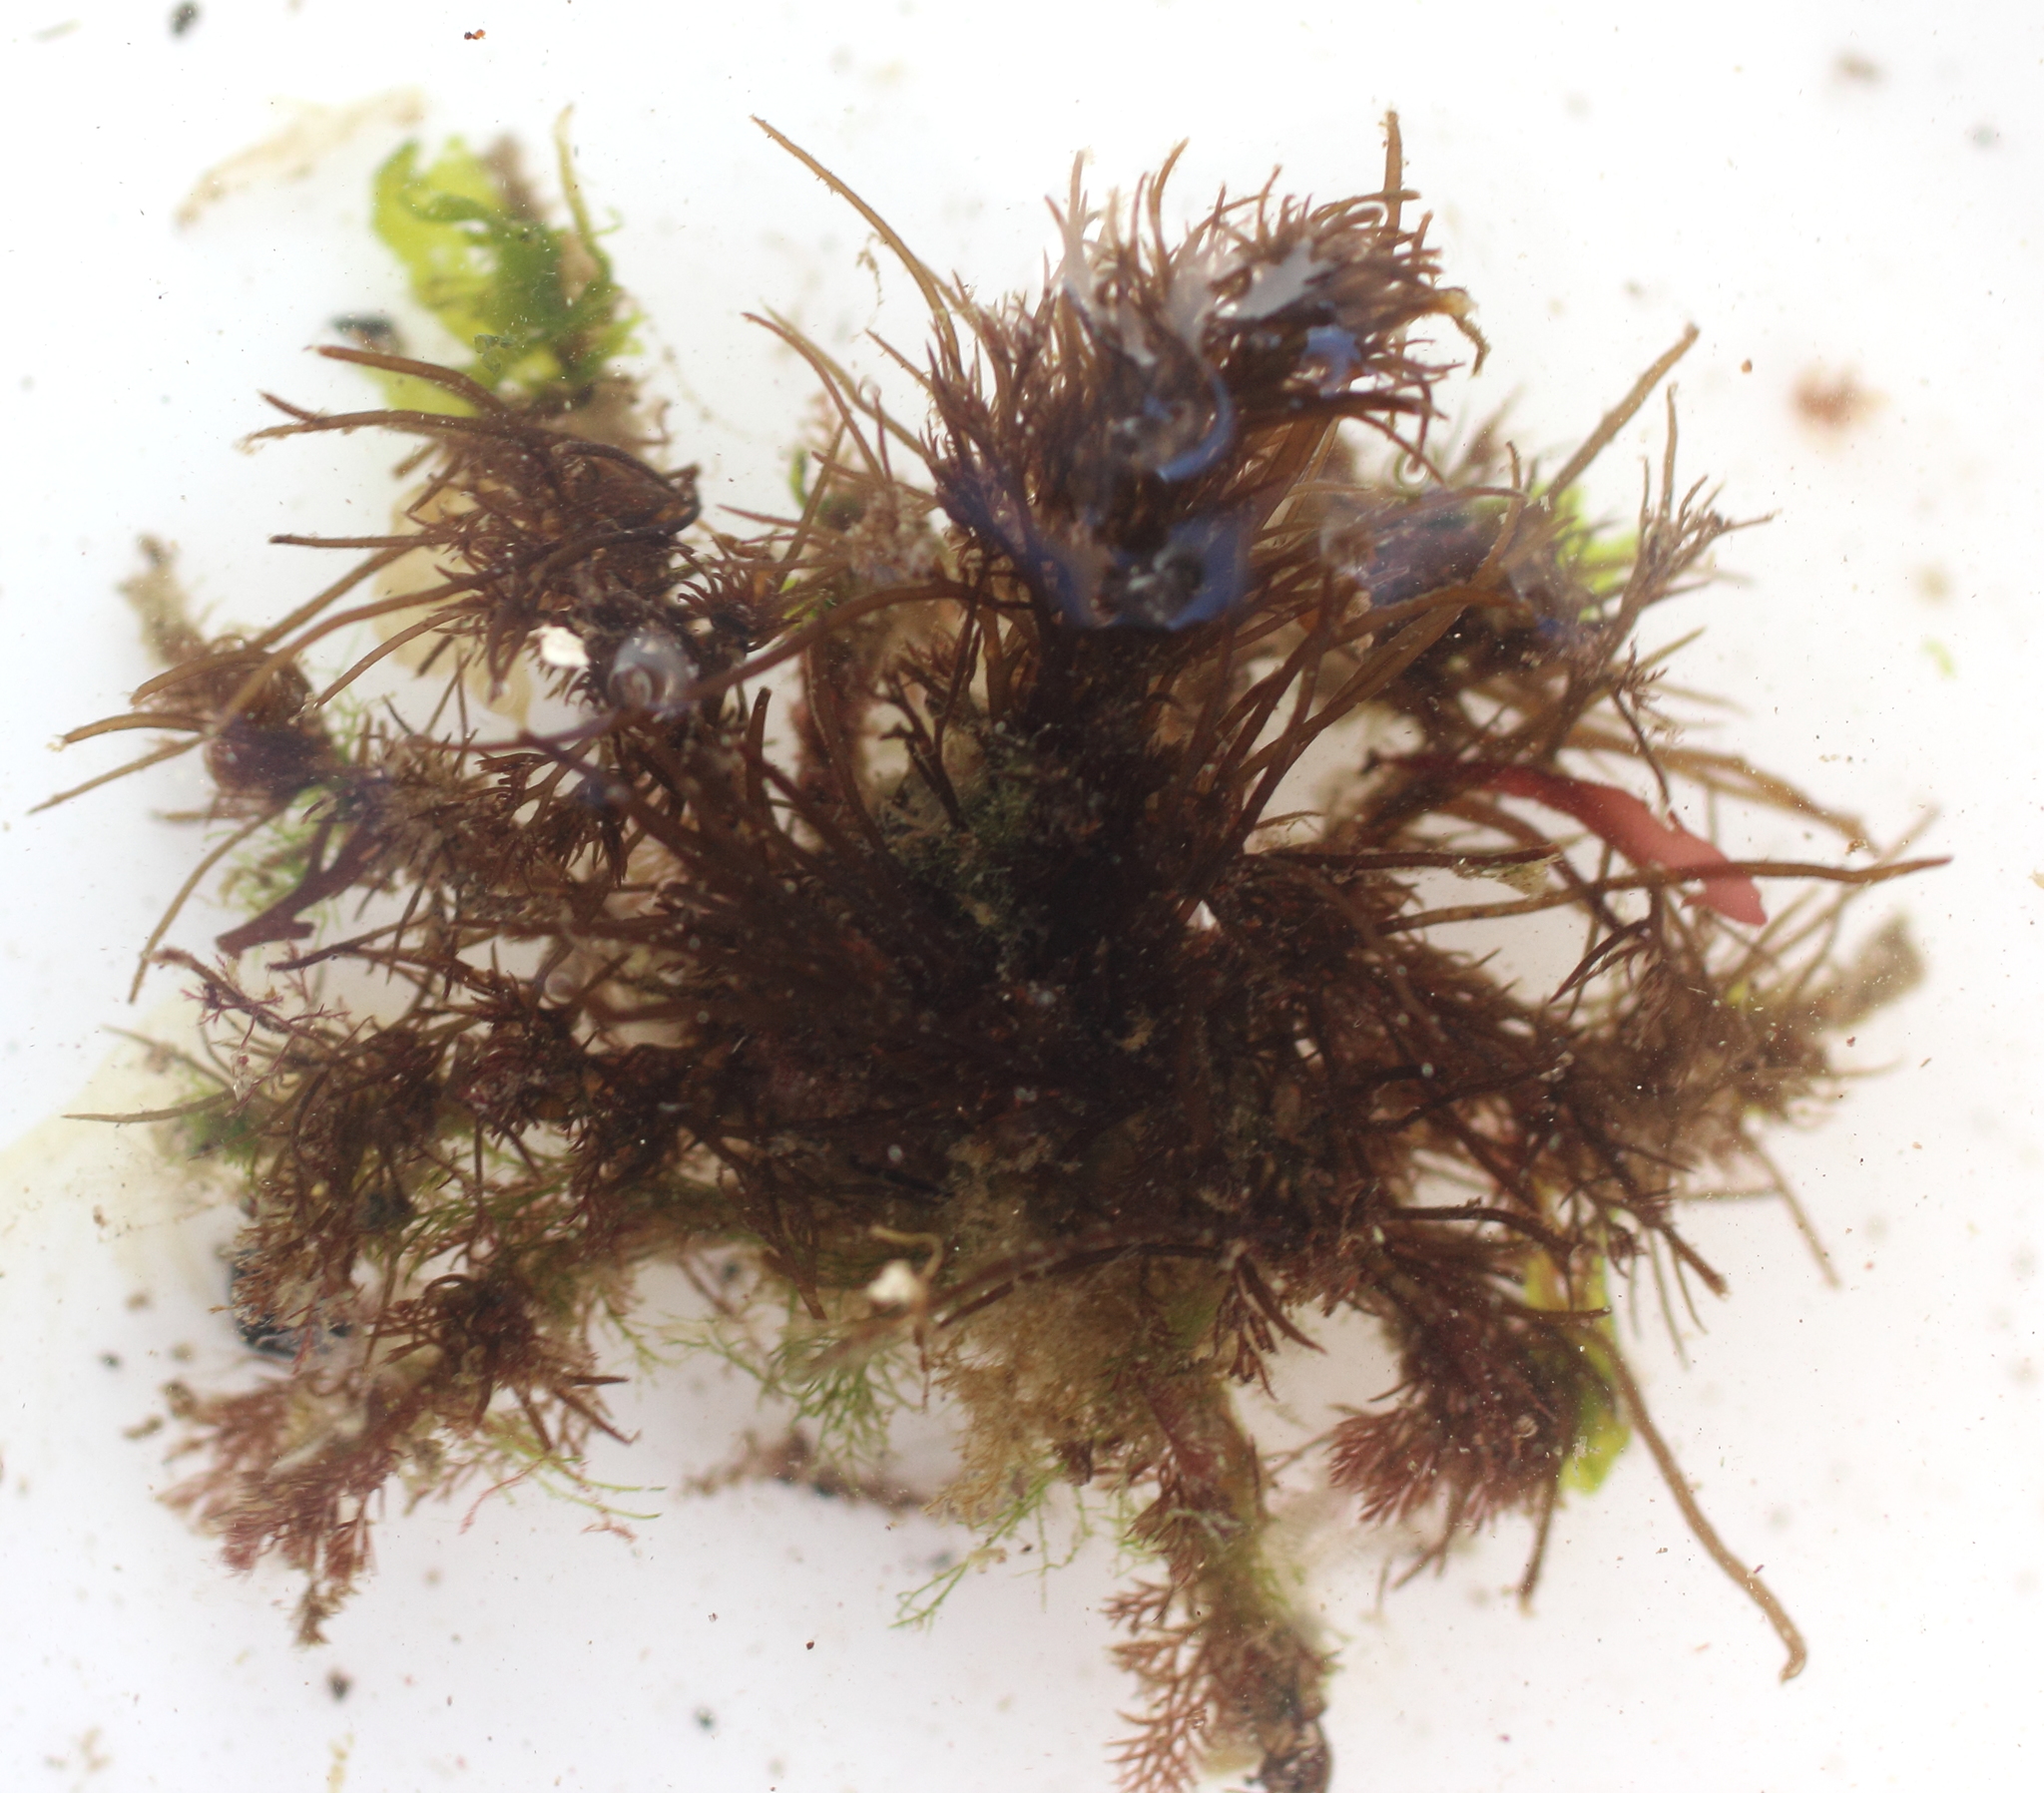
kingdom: Animalia
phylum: Arthropoda
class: Malacostraca
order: Decapoda
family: Oregoniidae
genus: Oregonia
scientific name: Oregonia gracilis
